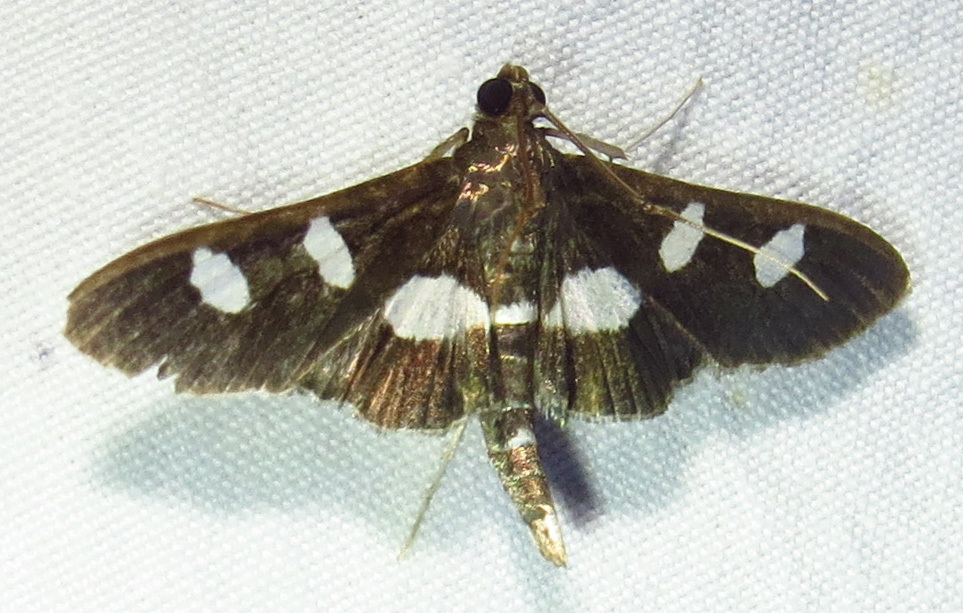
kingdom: Animalia
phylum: Arthropoda
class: Insecta
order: Lepidoptera
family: Crambidae
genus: Desmia
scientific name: Desmia
